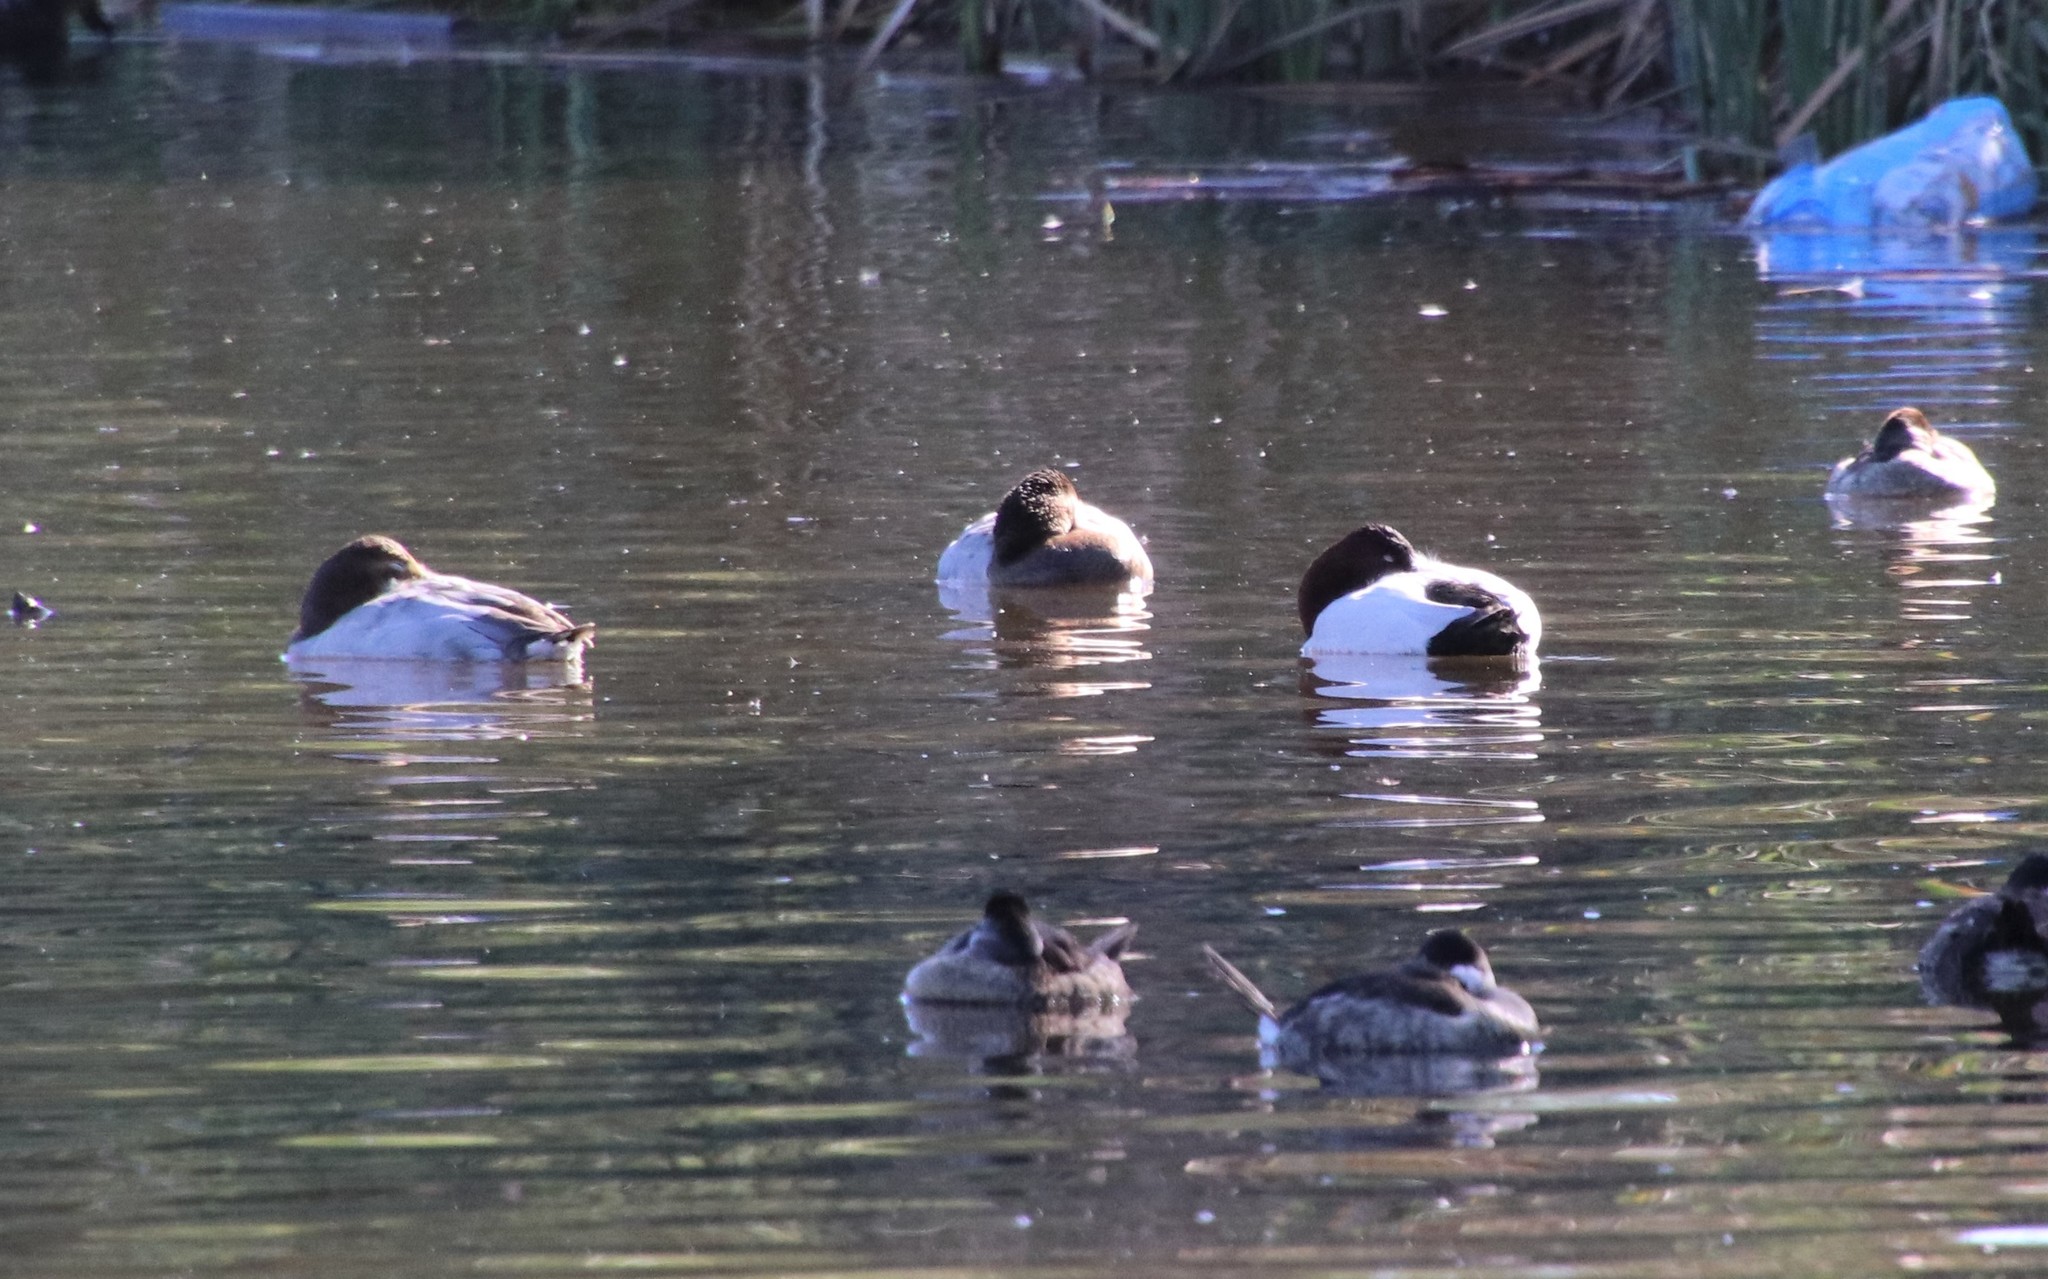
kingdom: Animalia
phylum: Chordata
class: Aves
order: Anseriformes
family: Anatidae
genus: Aythya
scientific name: Aythya valisineria
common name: Canvasback
